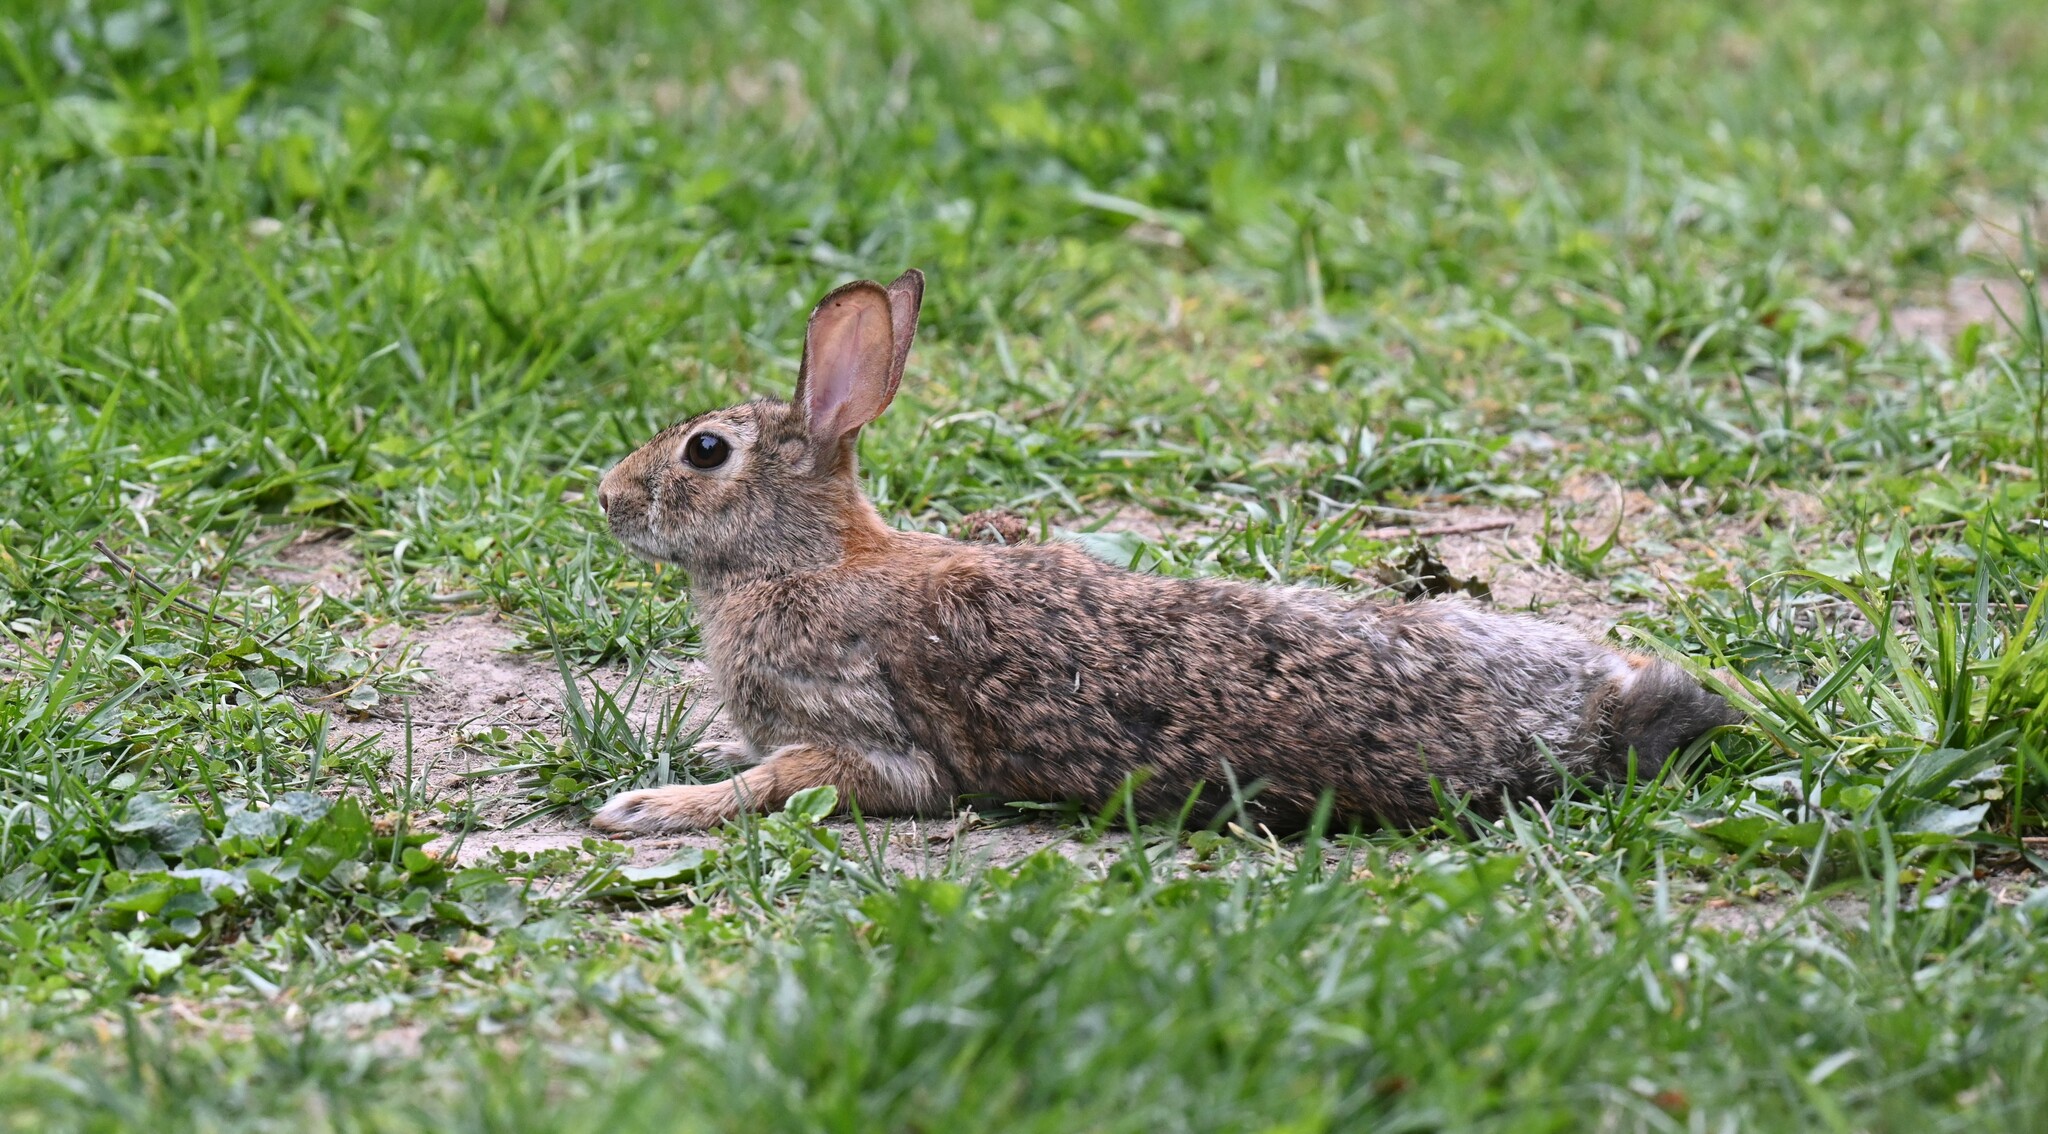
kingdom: Animalia
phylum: Chordata
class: Mammalia
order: Lagomorpha
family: Leporidae
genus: Sylvilagus
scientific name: Sylvilagus floridanus
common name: Eastern cottontail
